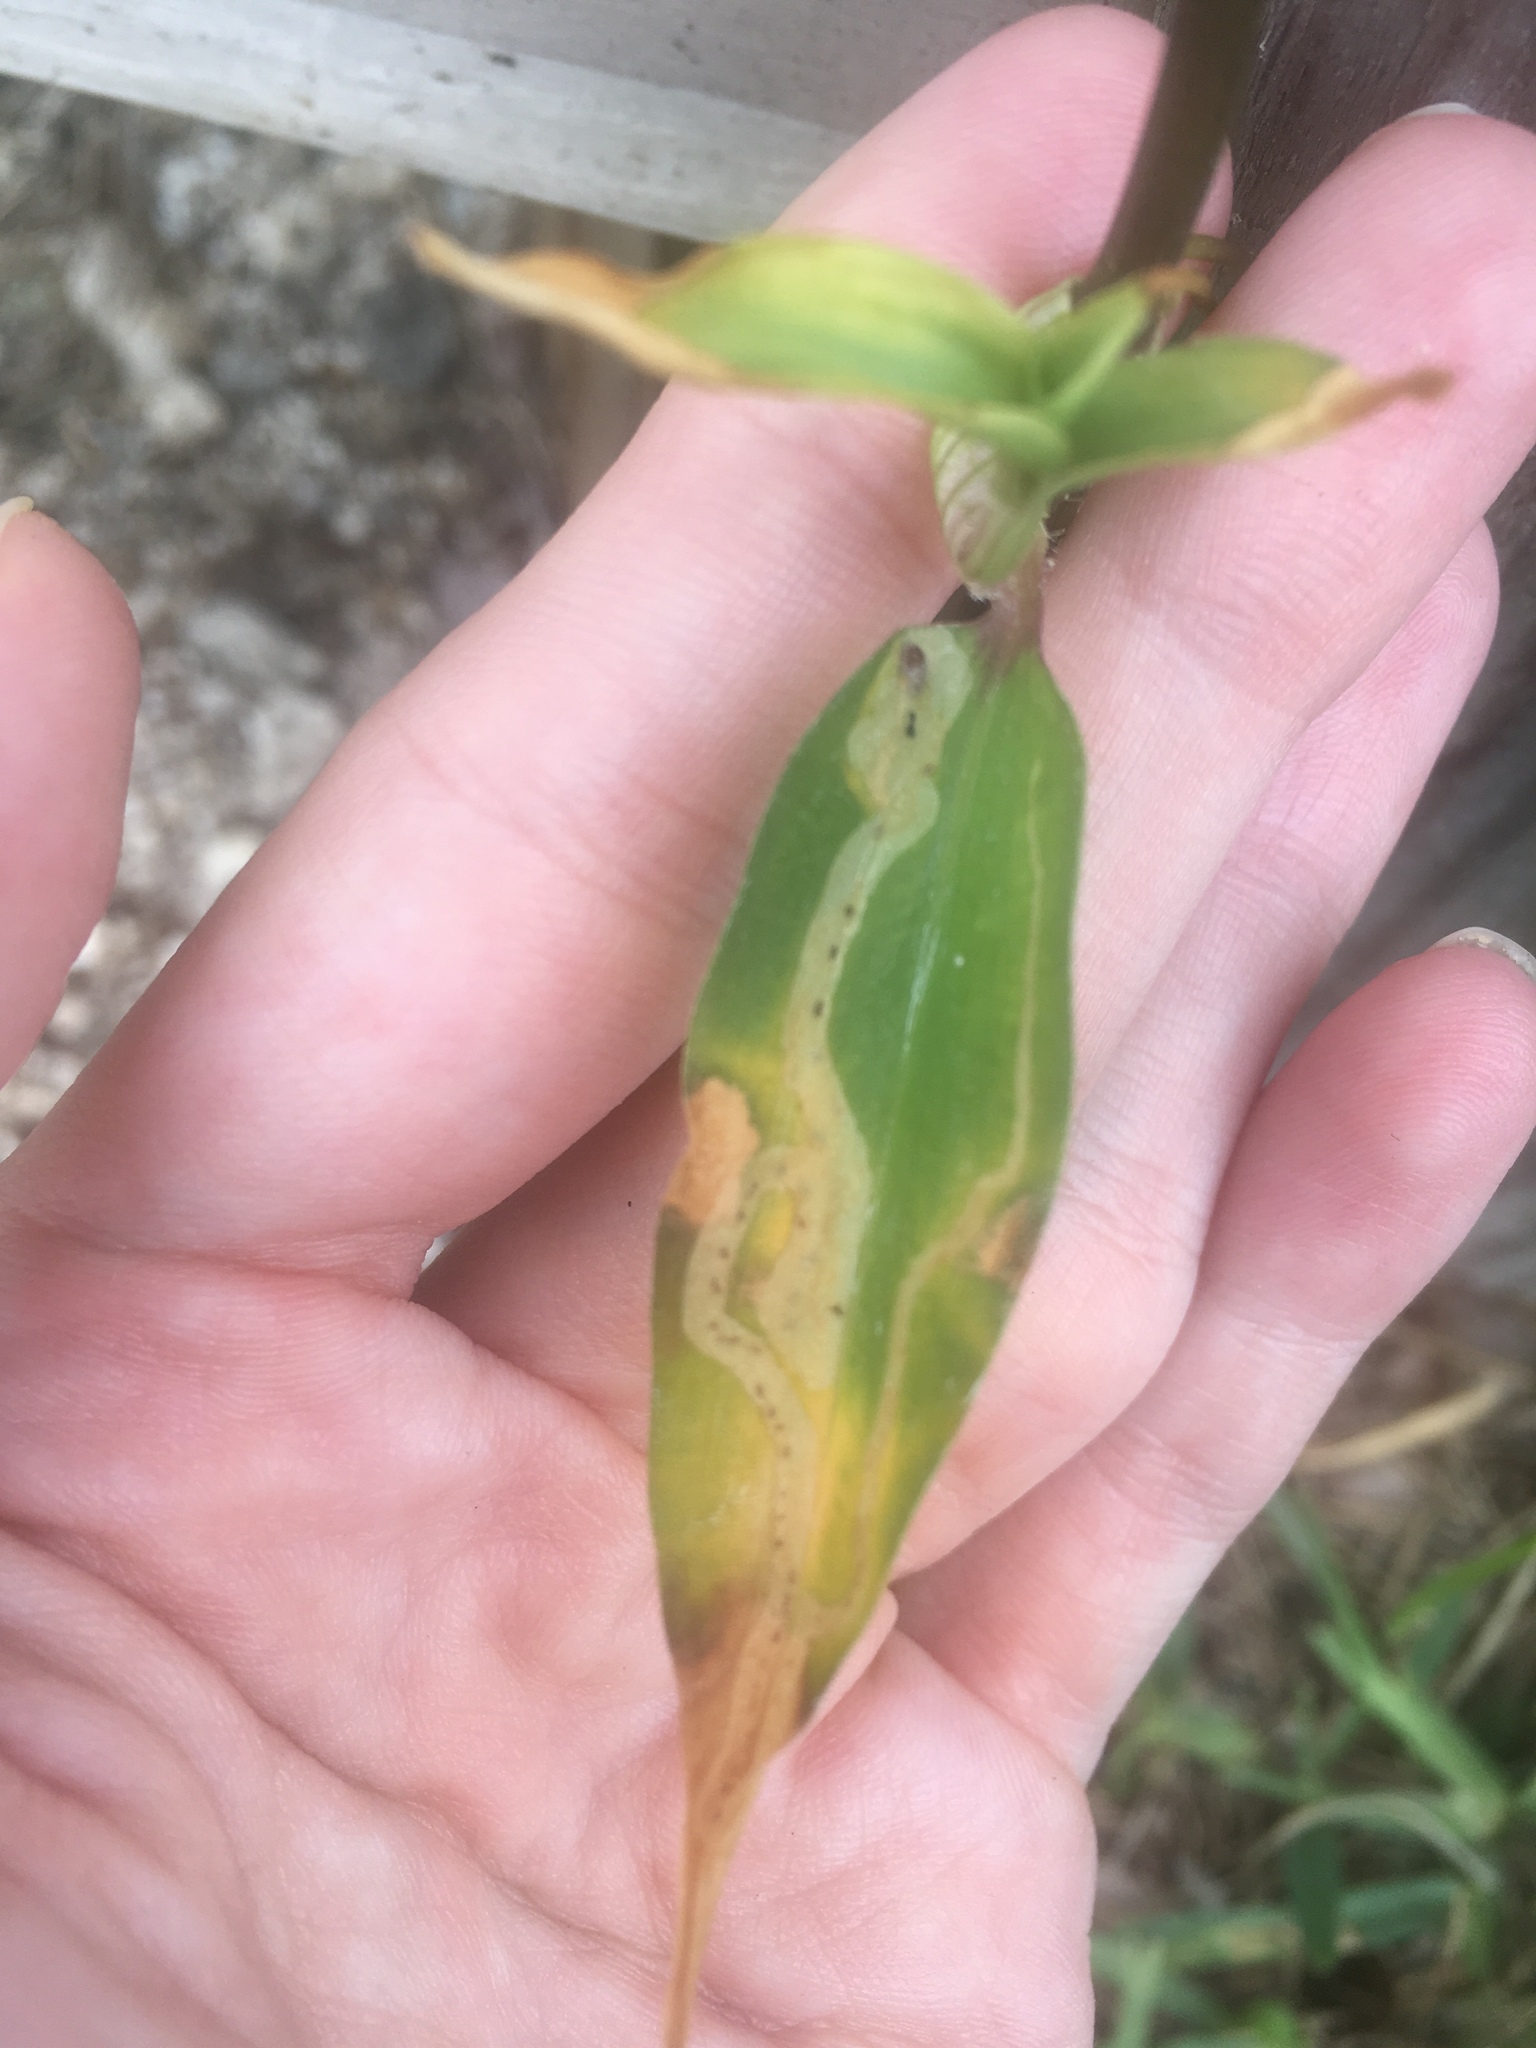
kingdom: Animalia
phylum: Arthropoda
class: Insecta
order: Diptera
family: Agromyzidae
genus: Liriomyza
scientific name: Liriomyza commelinae
